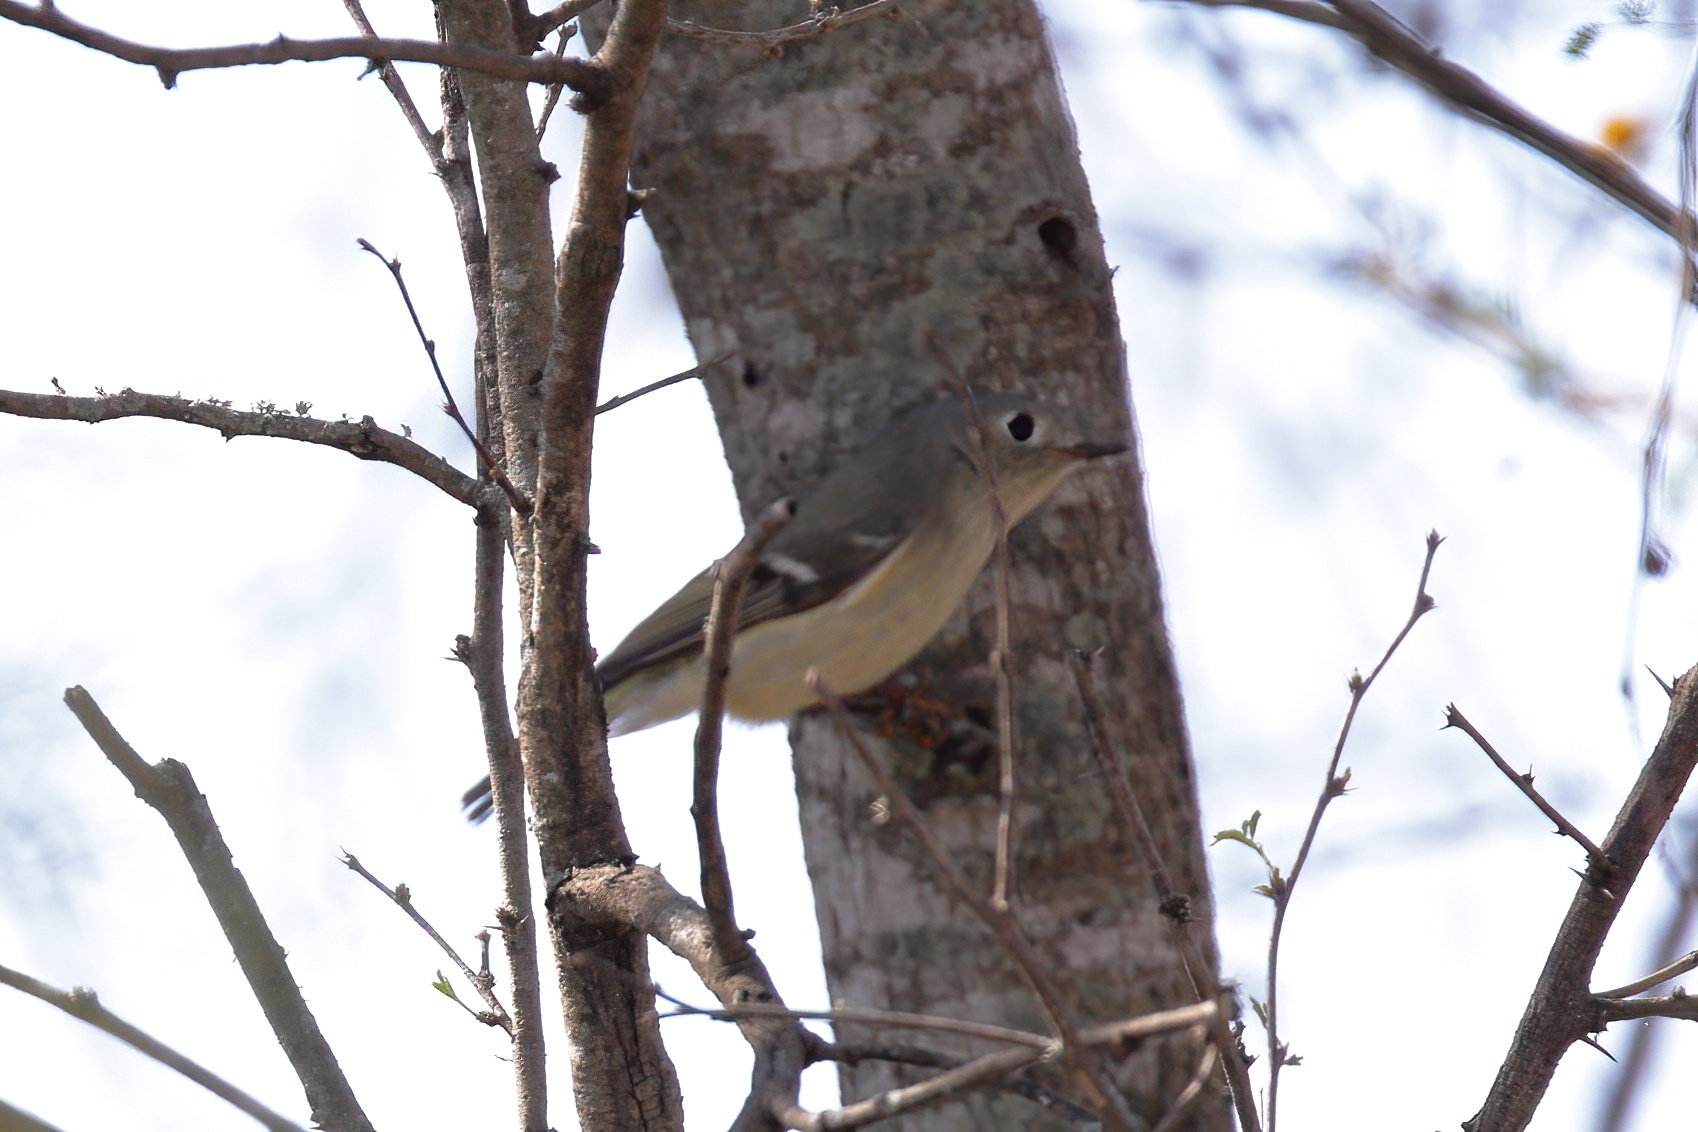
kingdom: Animalia
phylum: Chordata
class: Aves
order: Passeriformes
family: Regulidae
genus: Regulus
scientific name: Regulus calendula
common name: Ruby-crowned kinglet
